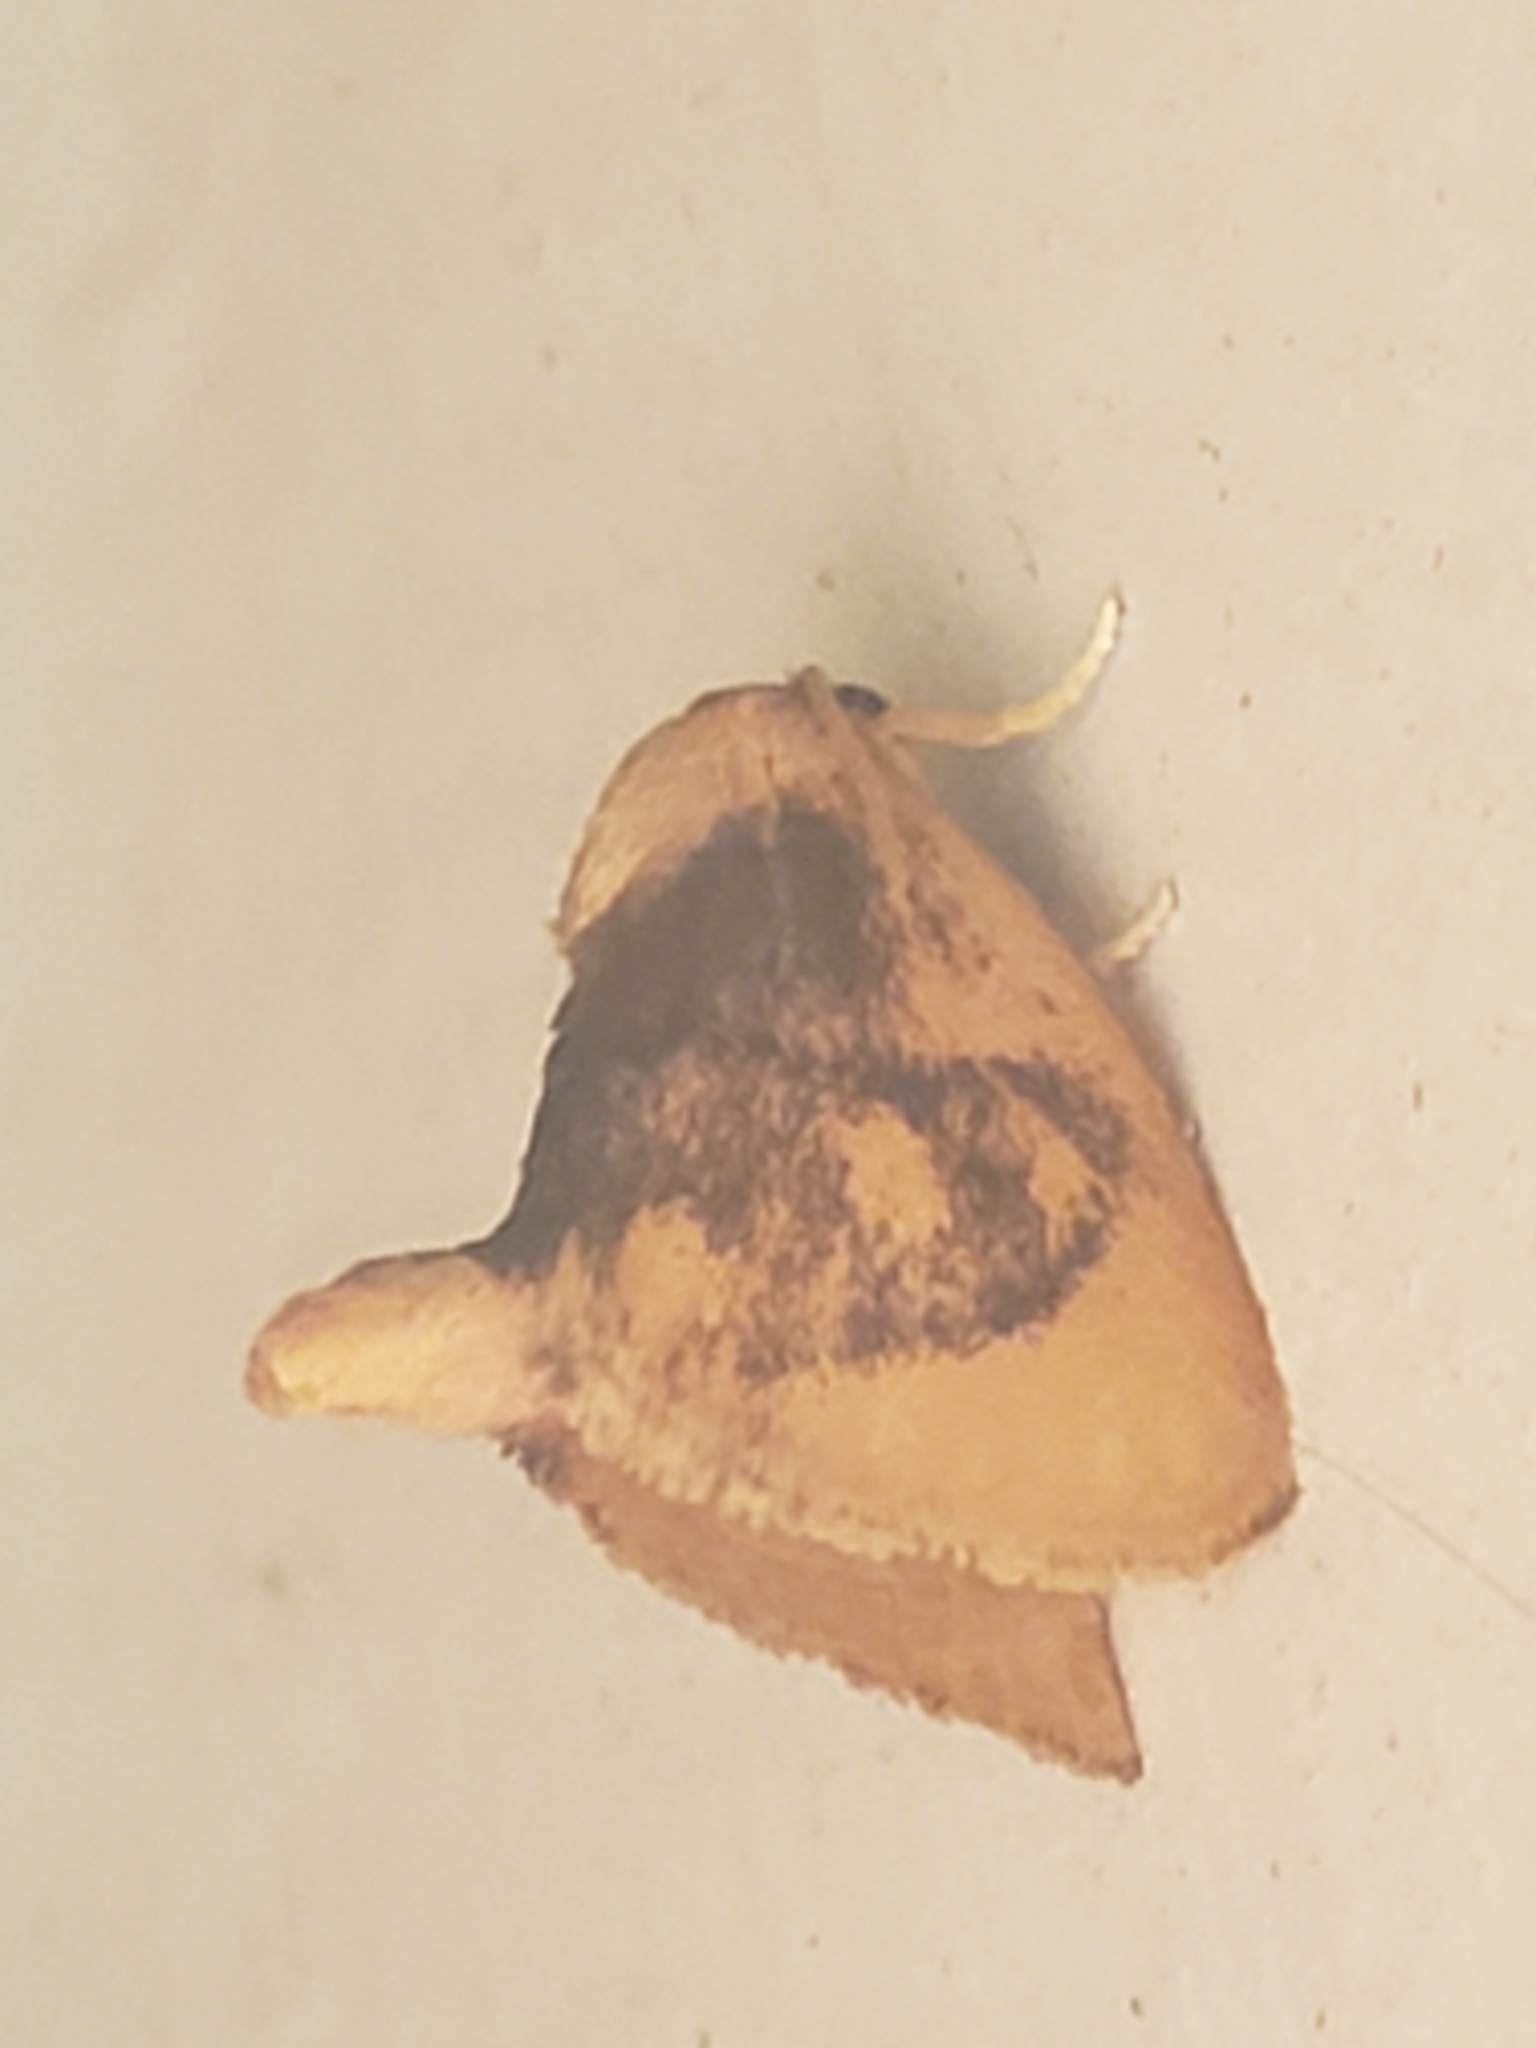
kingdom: Animalia
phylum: Arthropoda
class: Insecta
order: Lepidoptera
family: Limacodidae
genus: Tortricidia
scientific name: Tortricidia flexuosa
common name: Abbreviated button slug moth
